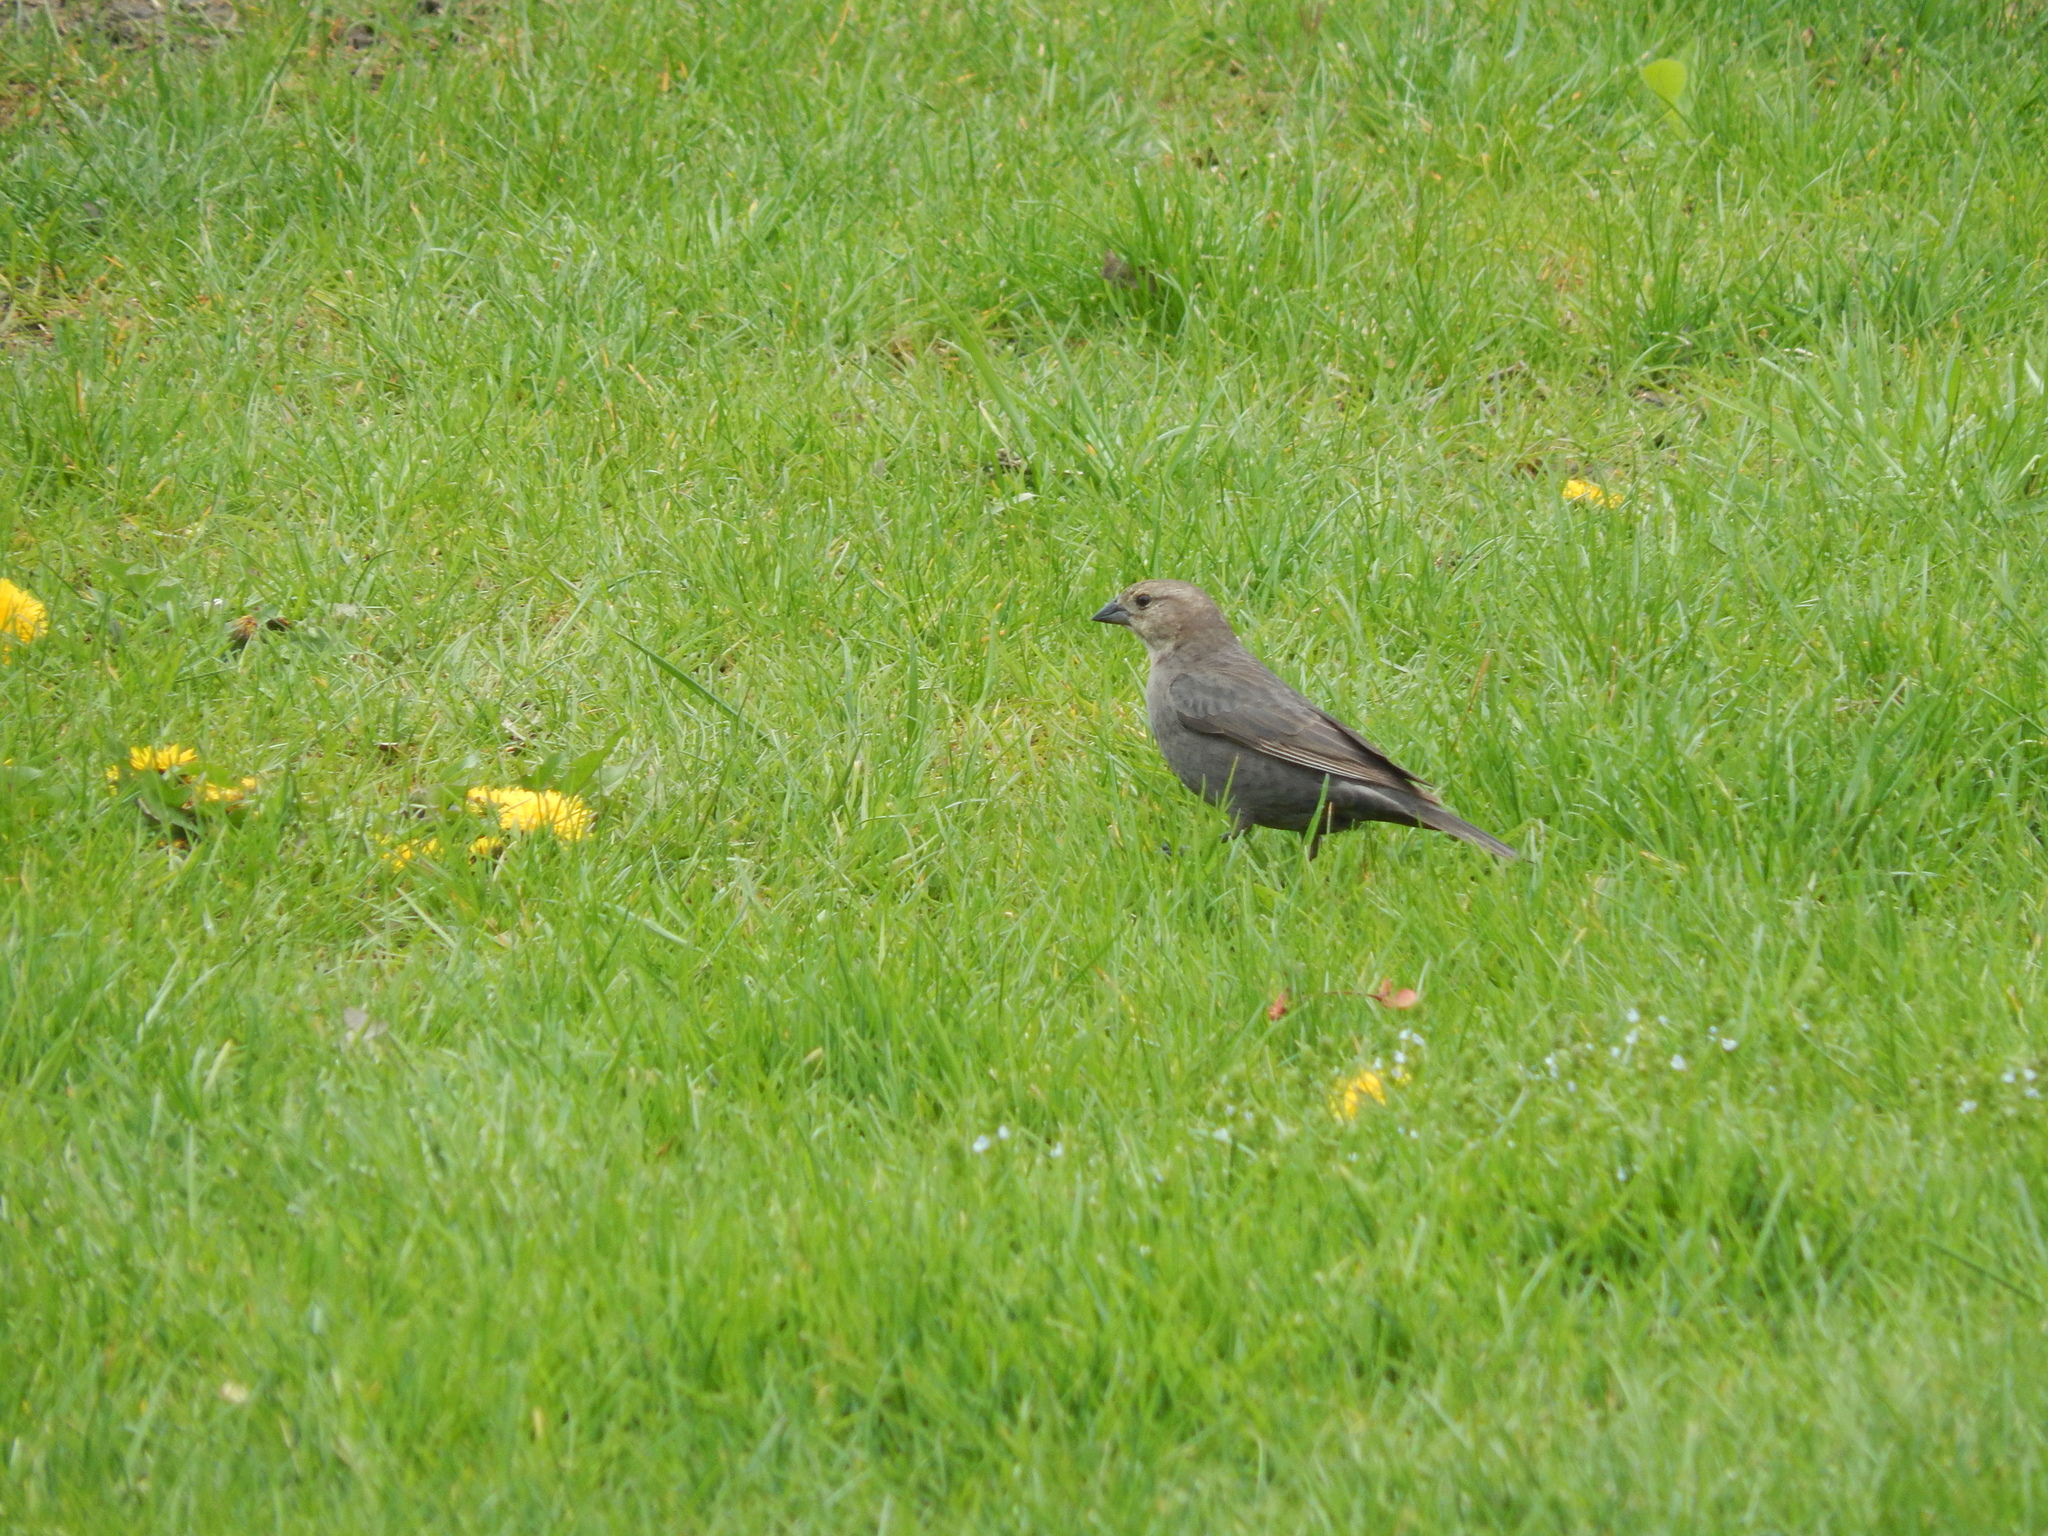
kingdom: Animalia
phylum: Chordata
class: Aves
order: Passeriformes
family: Icteridae
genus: Molothrus
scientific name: Molothrus ater
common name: Brown-headed cowbird
